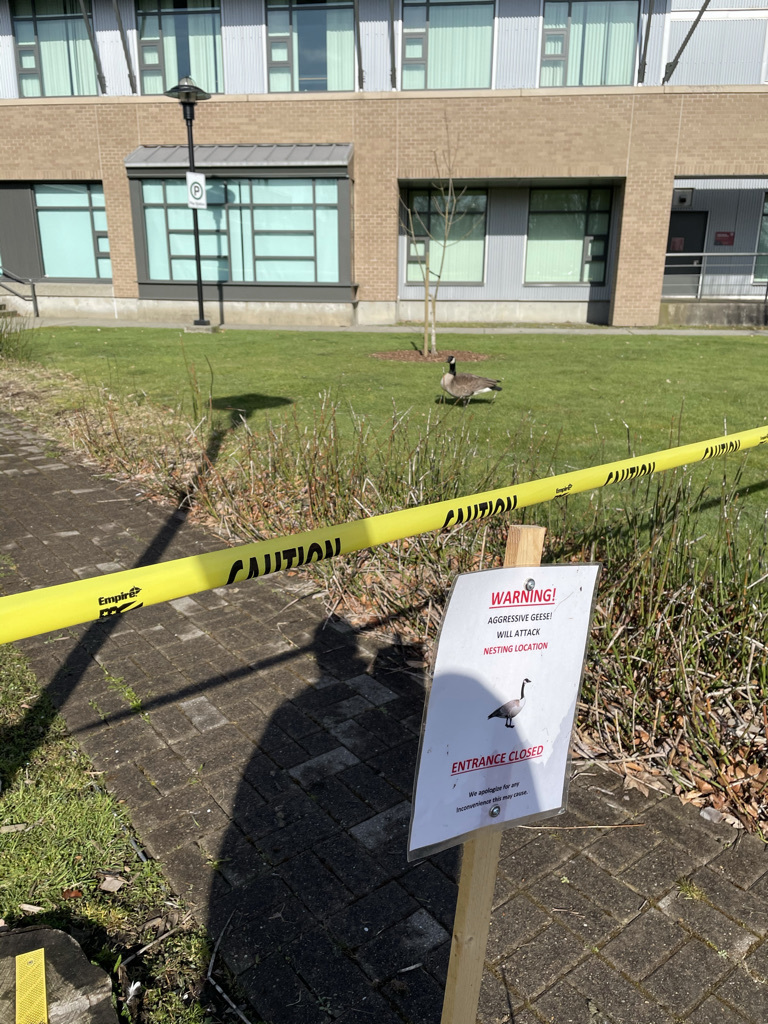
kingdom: Animalia
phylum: Chordata
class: Aves
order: Anseriformes
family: Anatidae
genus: Branta
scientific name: Branta canadensis
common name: Canada goose
